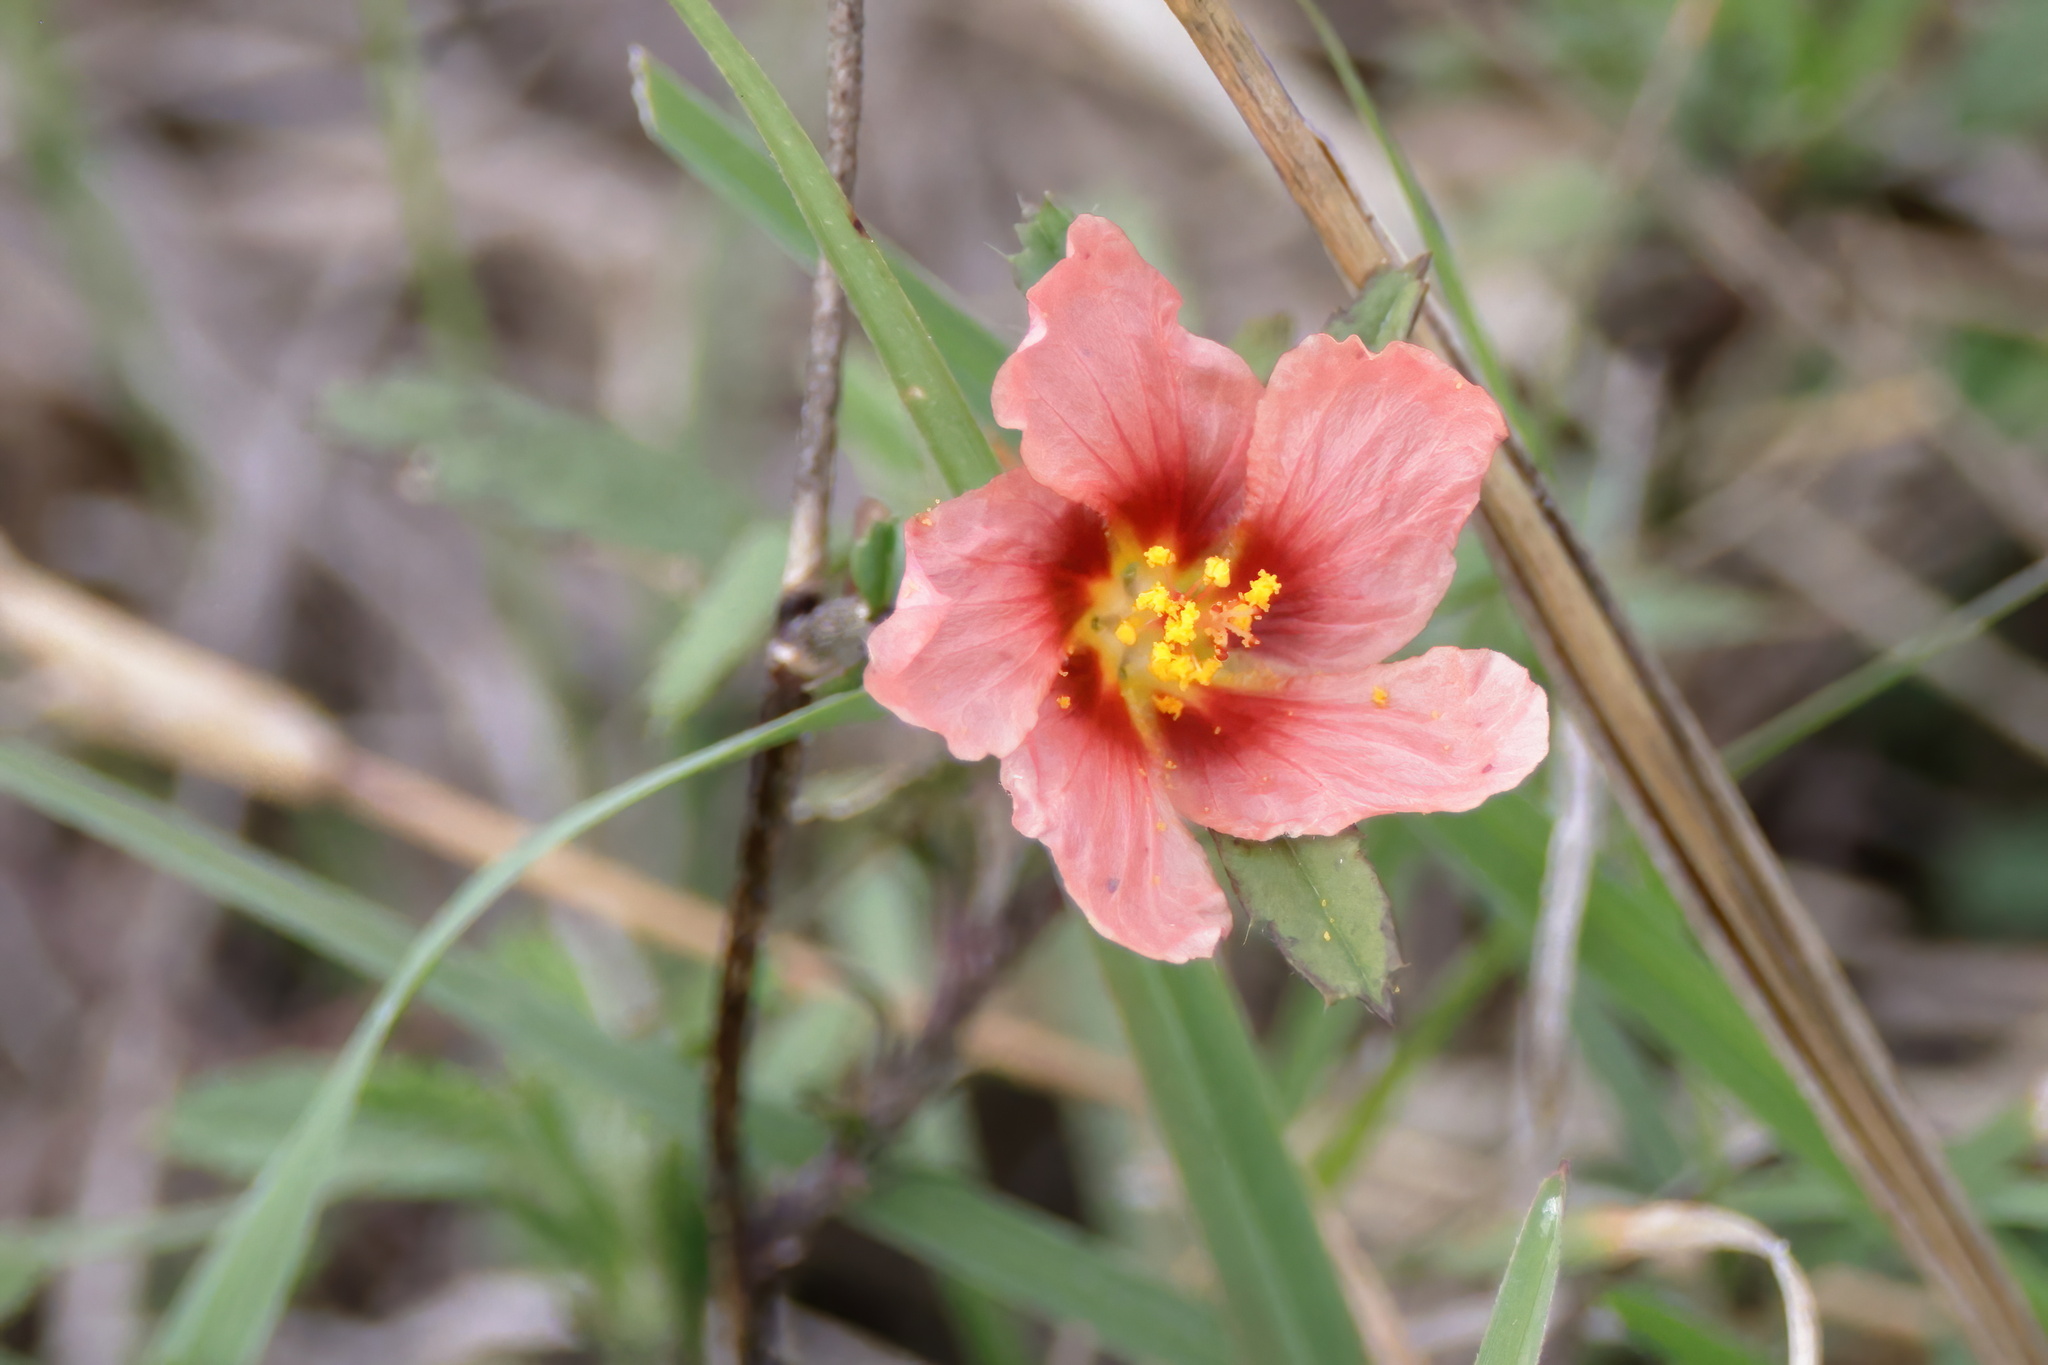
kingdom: Plantae
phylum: Tracheophyta
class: Magnoliopsida
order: Malvales
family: Malvaceae
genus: Sida
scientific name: Sida ciliaris
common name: Bracted fanpetals
